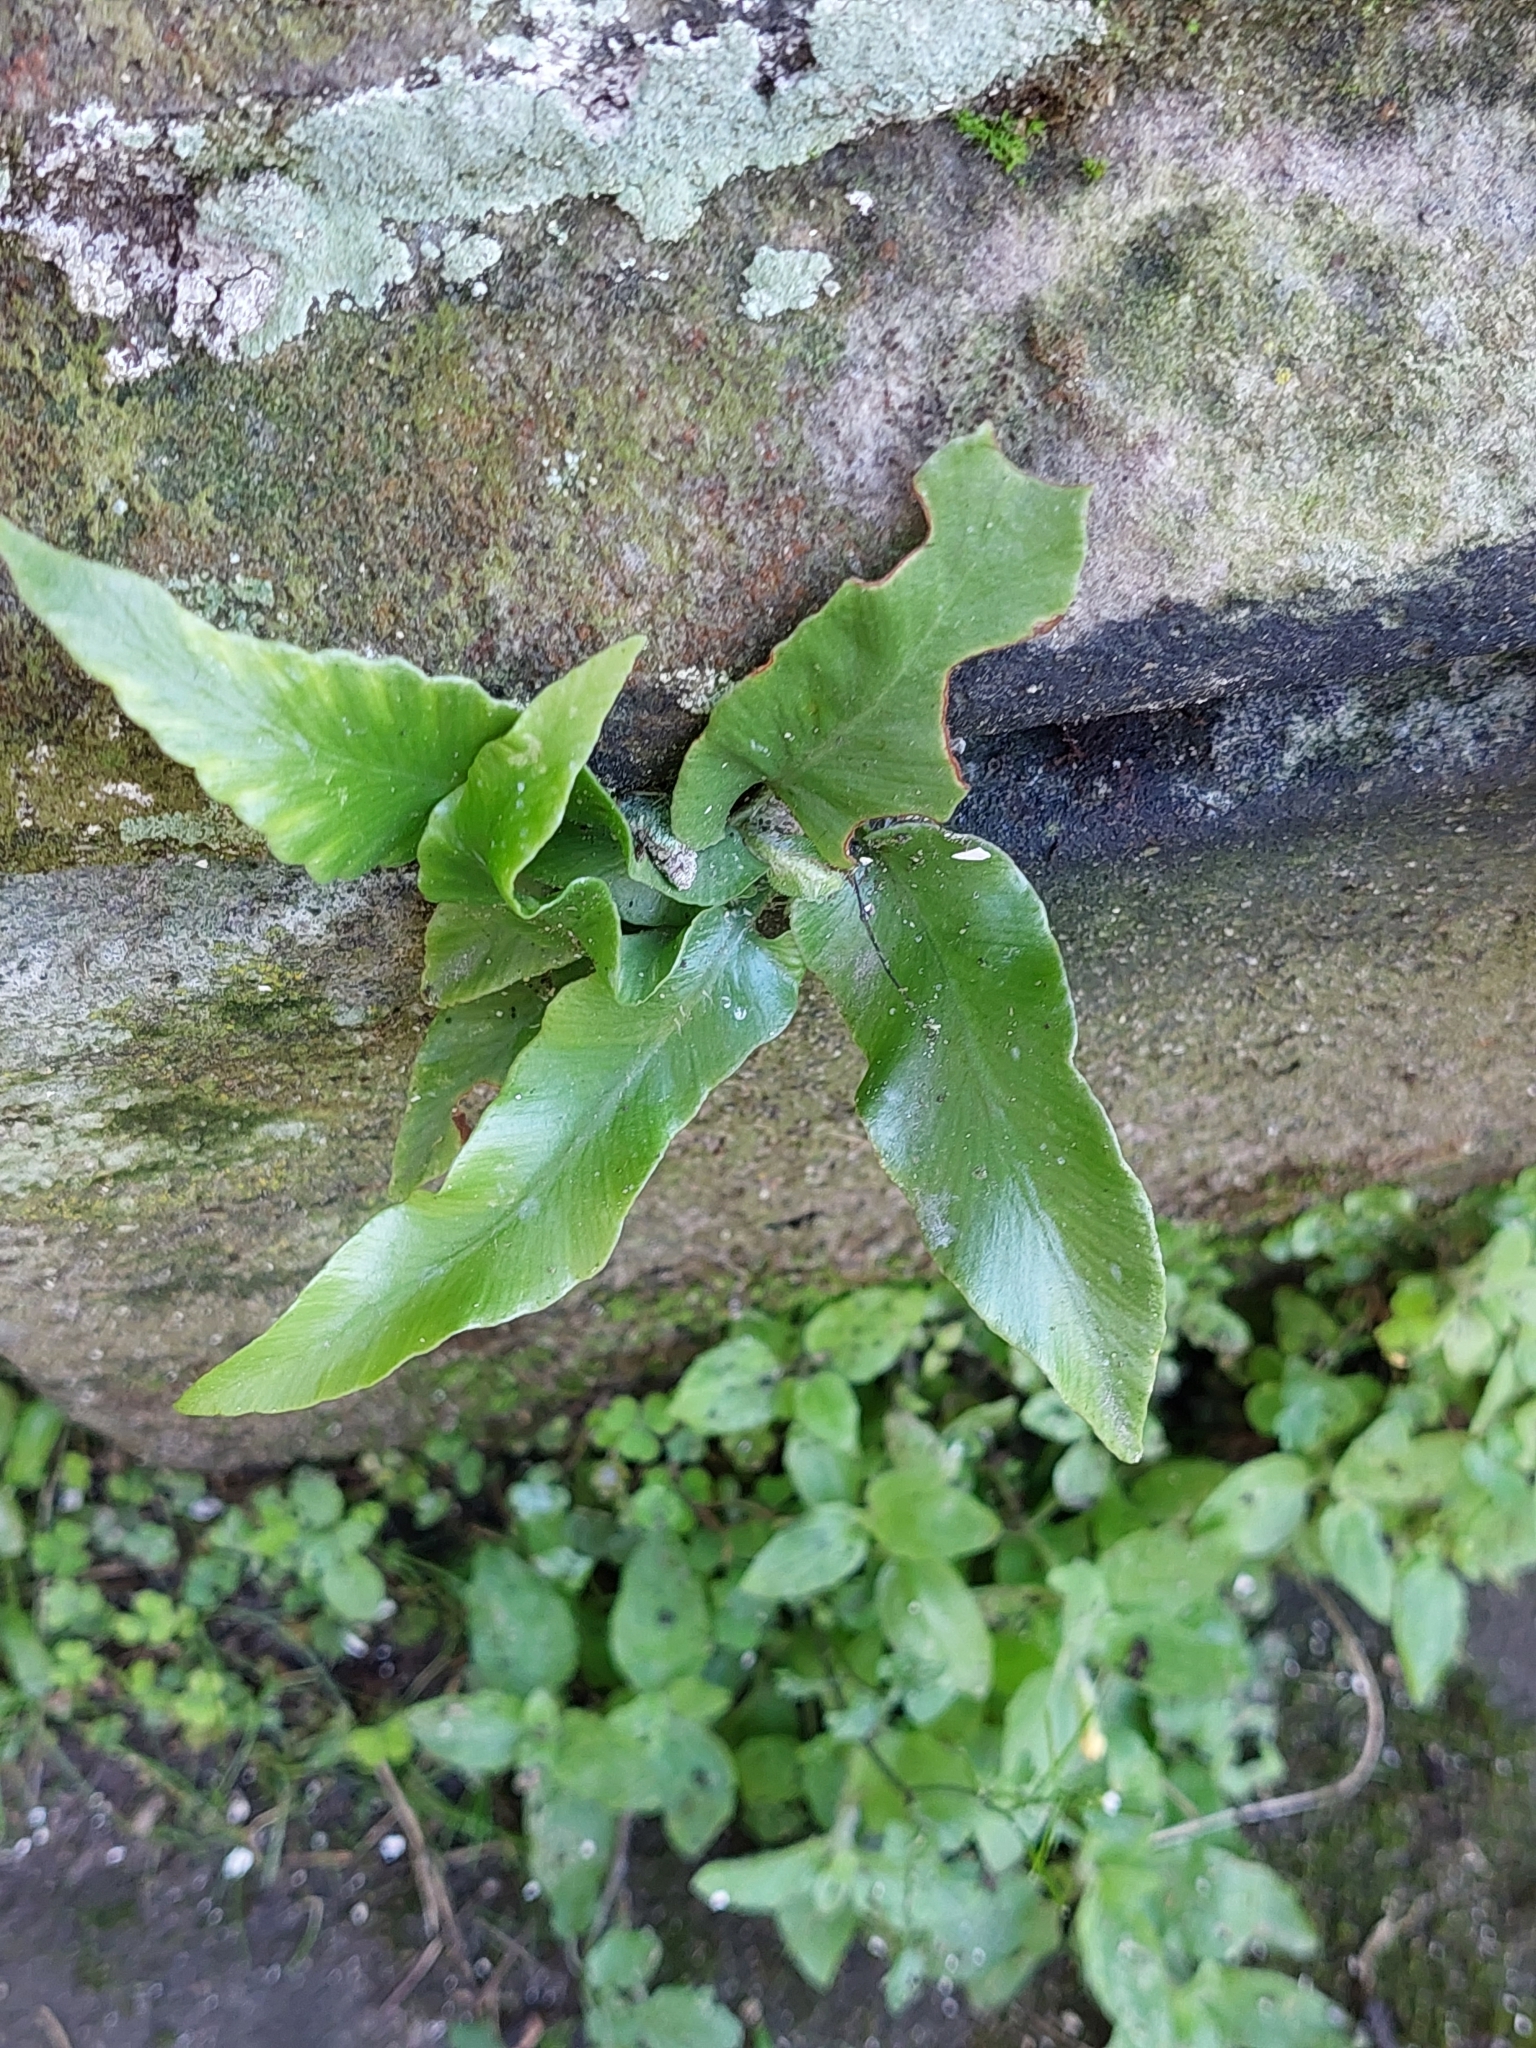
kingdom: Plantae
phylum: Tracheophyta
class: Polypodiopsida
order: Polypodiales
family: Aspleniaceae
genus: Asplenium
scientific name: Asplenium scolopendrium
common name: Hart's-tongue fern
